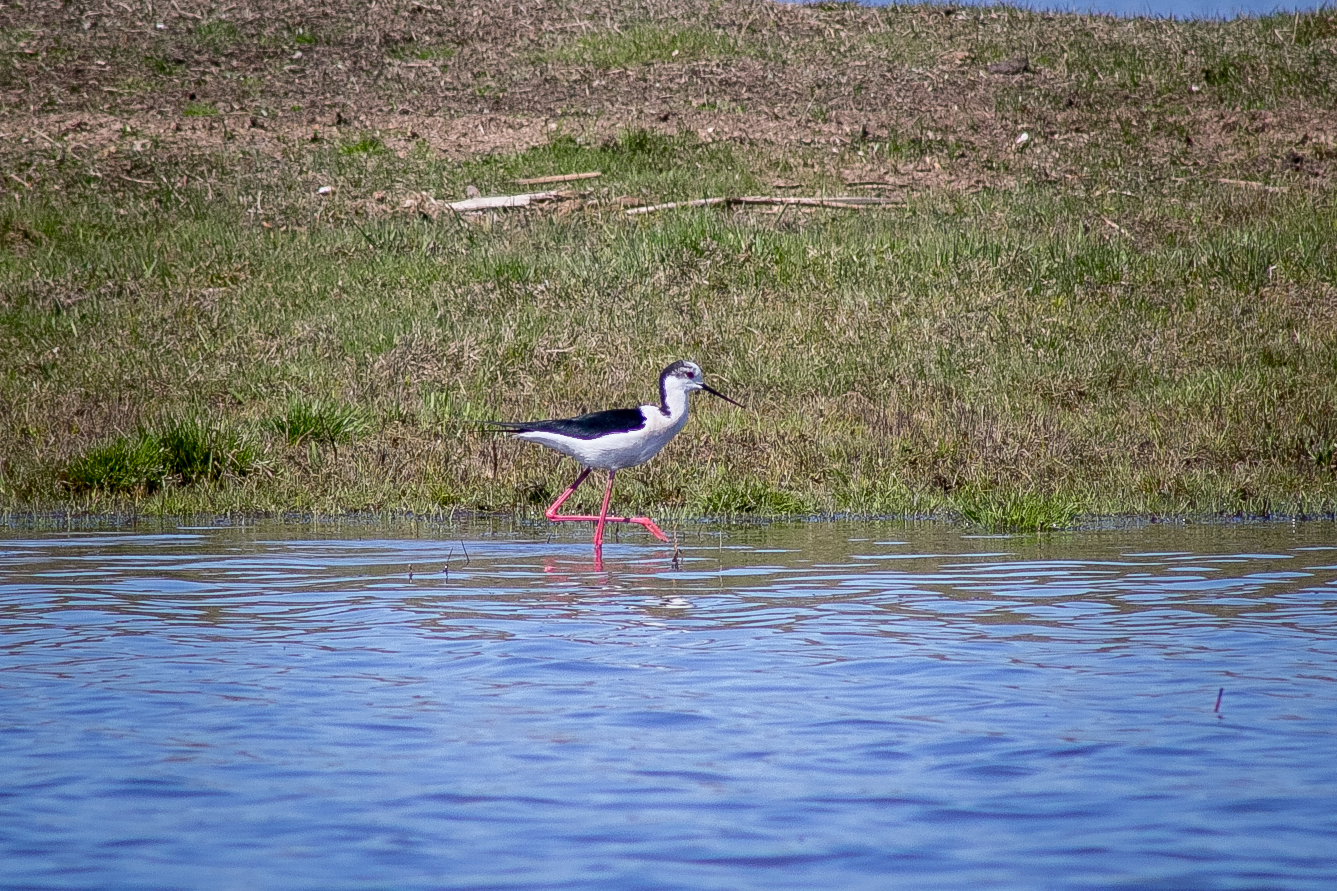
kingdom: Animalia
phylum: Chordata
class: Aves
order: Charadriiformes
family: Recurvirostridae
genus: Himantopus
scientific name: Himantopus himantopus
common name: Black-winged stilt
